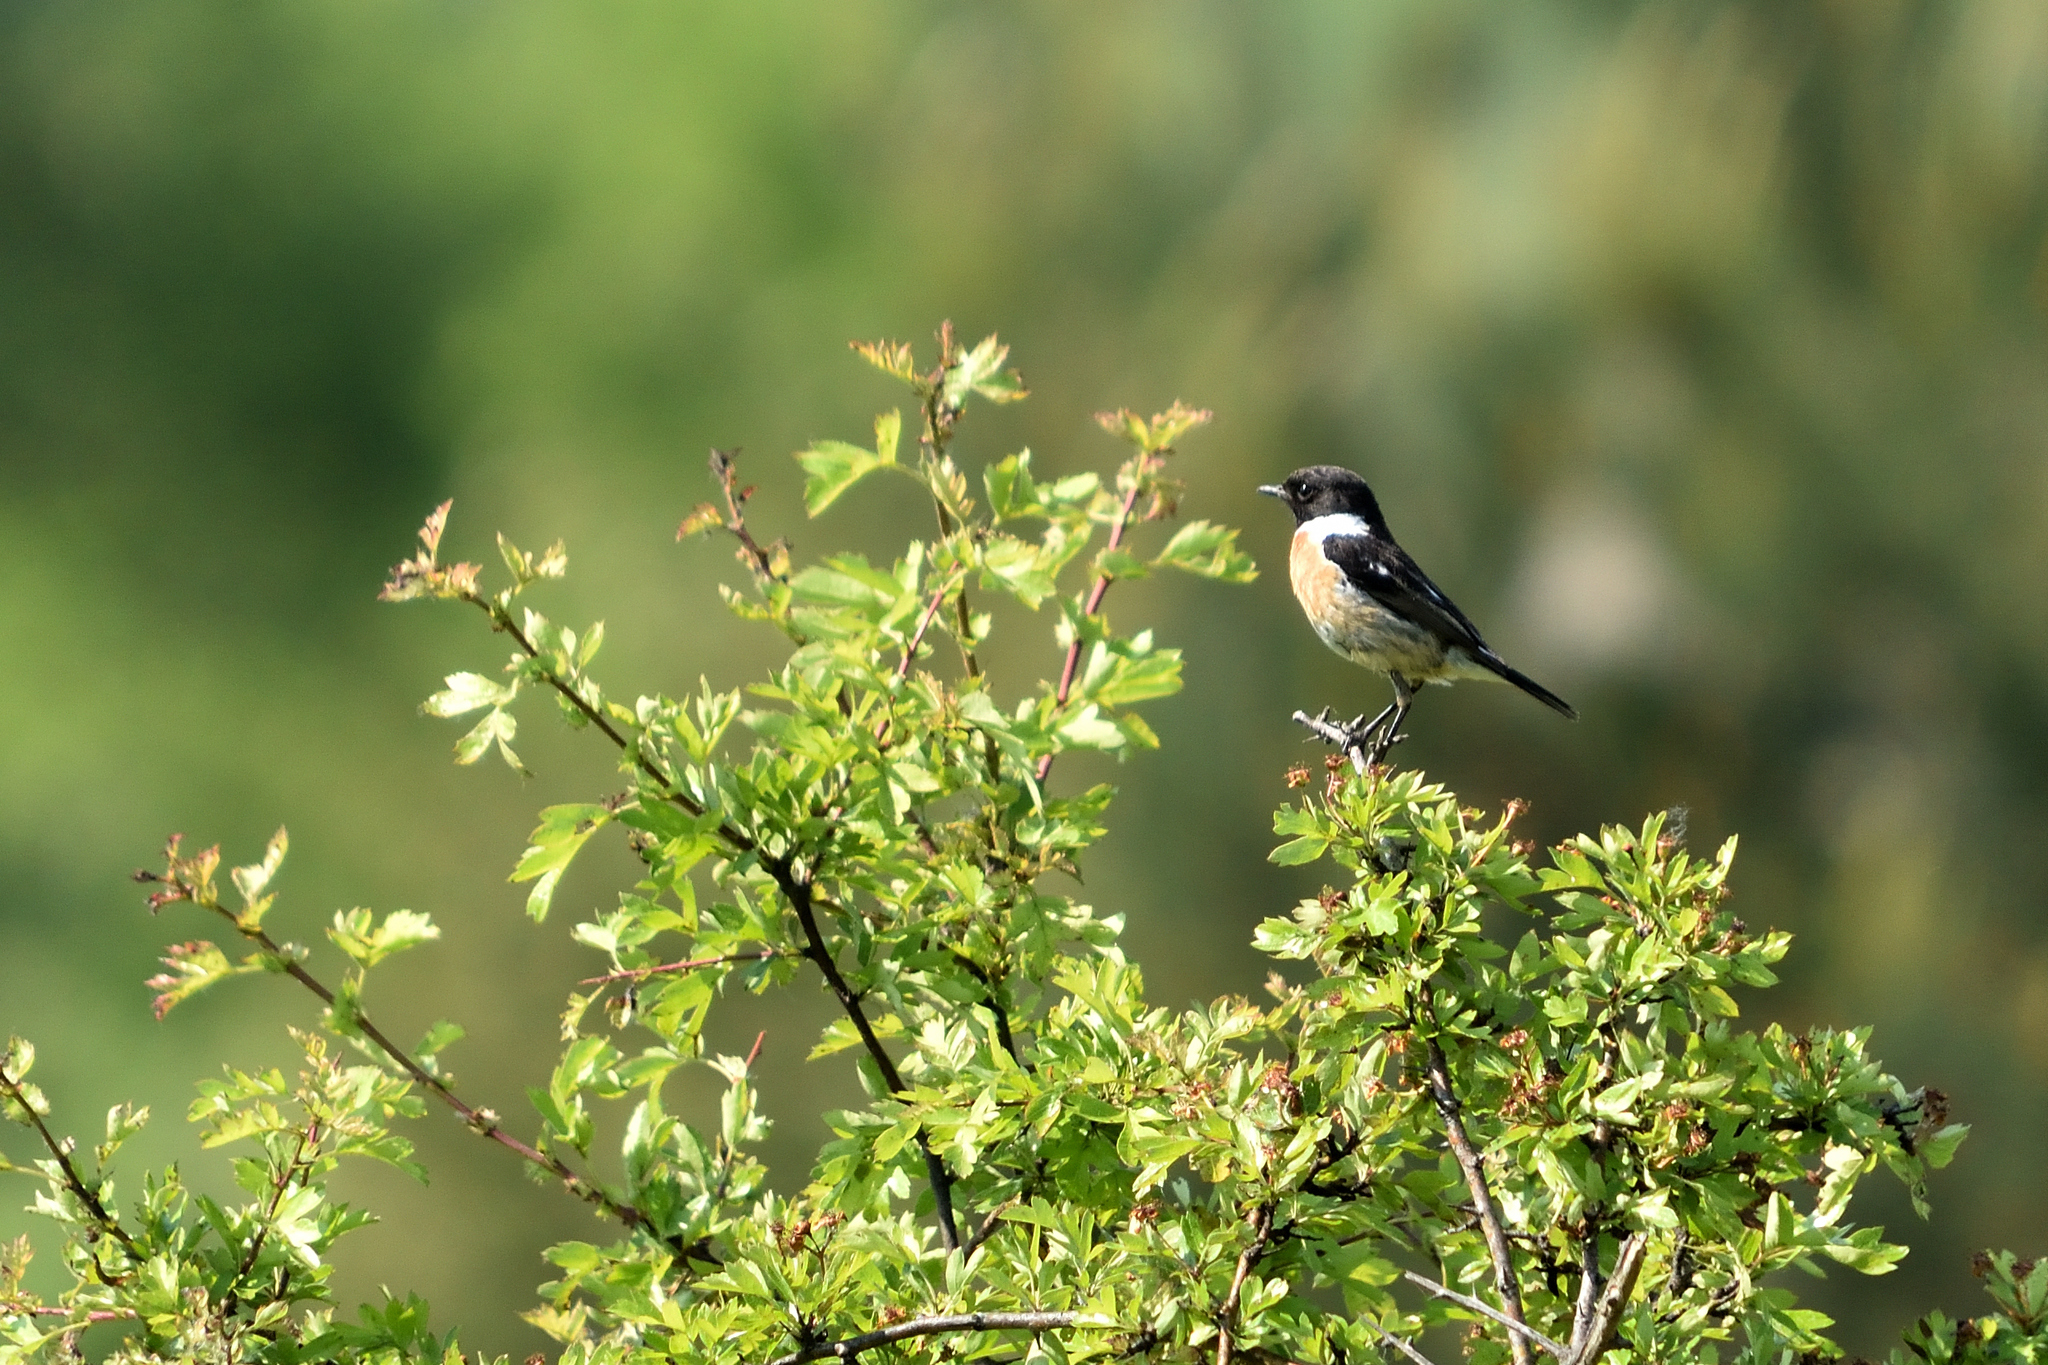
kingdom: Animalia
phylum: Chordata
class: Aves
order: Passeriformes
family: Muscicapidae
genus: Saxicola
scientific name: Saxicola rubicola
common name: European stonechat
